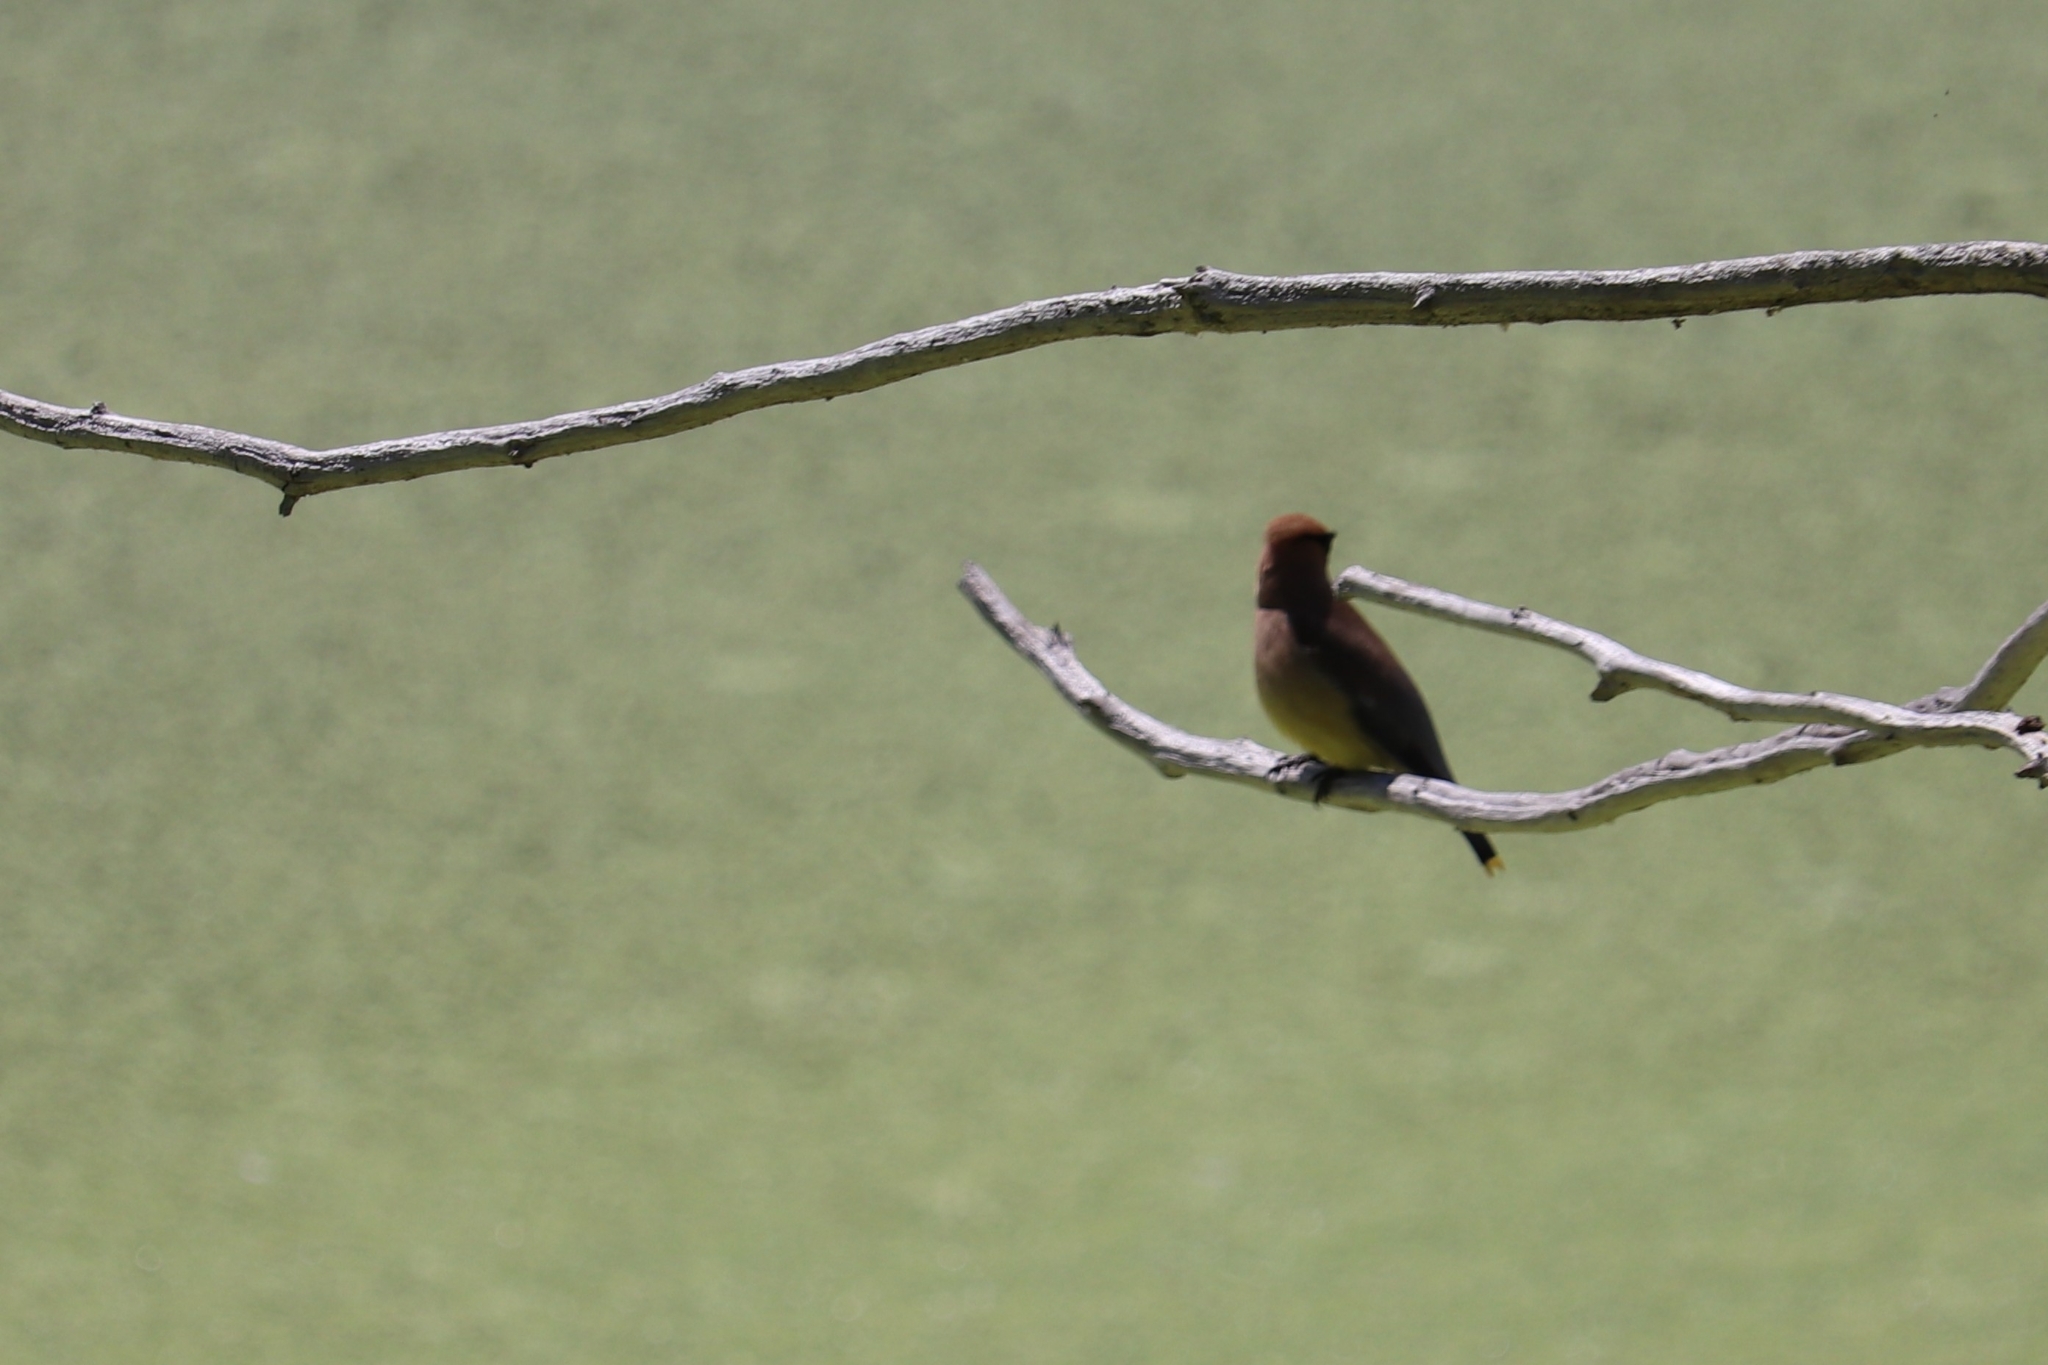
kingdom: Animalia
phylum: Chordata
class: Aves
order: Passeriformes
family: Bombycillidae
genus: Bombycilla
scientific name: Bombycilla cedrorum
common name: Cedar waxwing
